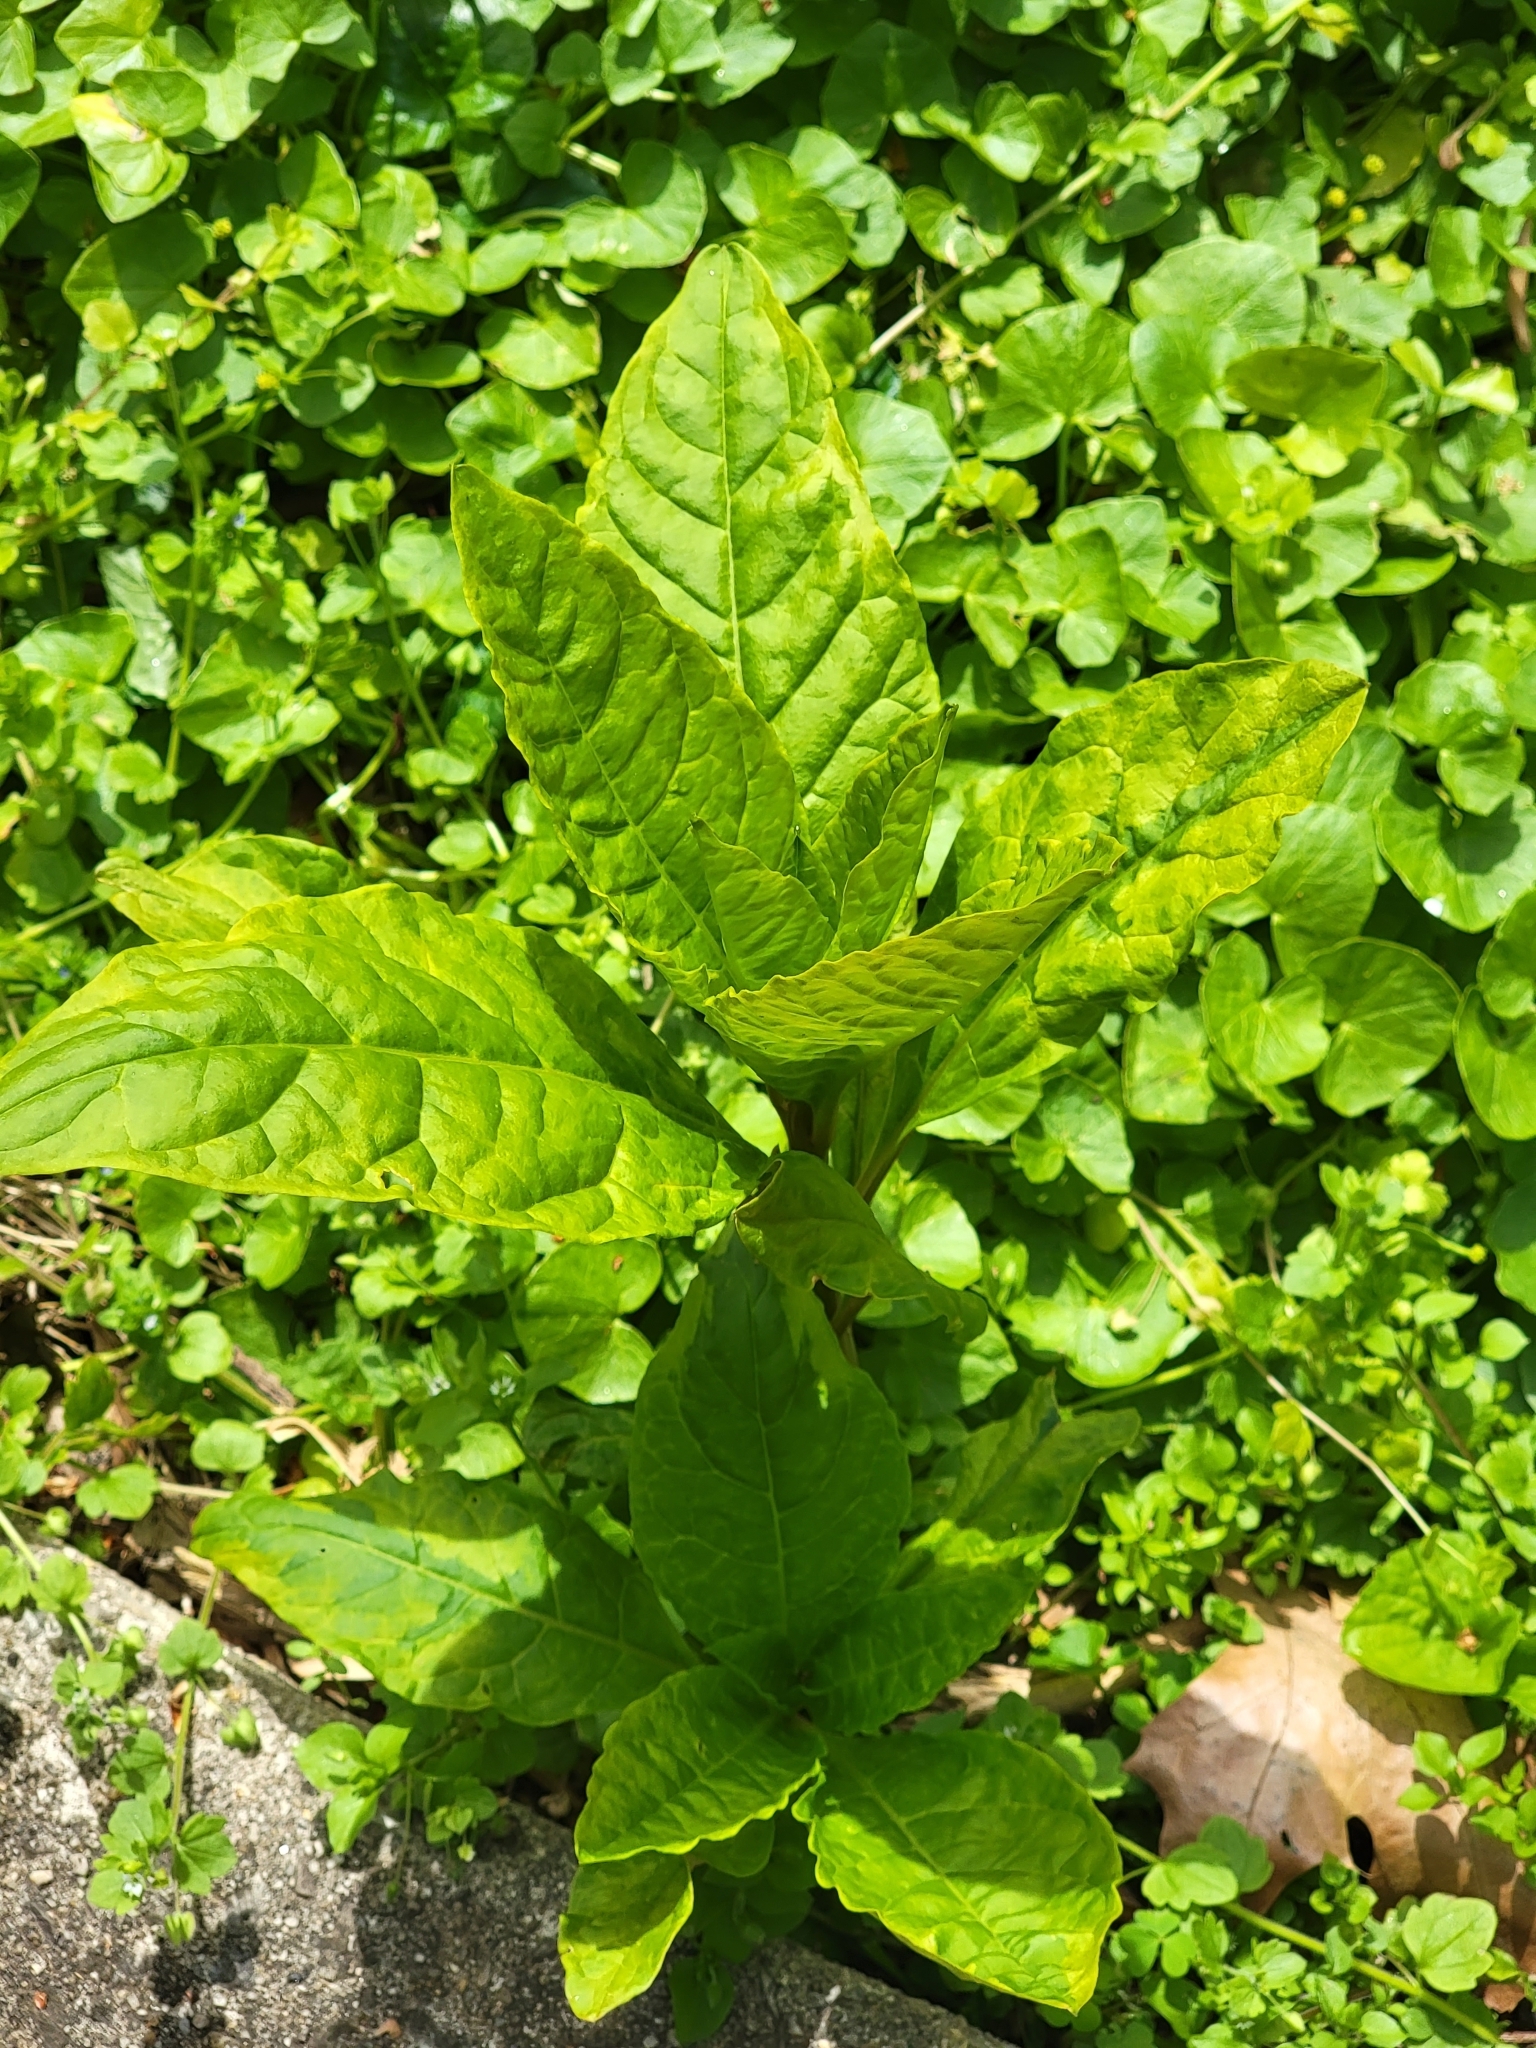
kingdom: Plantae
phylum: Tracheophyta
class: Magnoliopsida
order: Caryophyllales
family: Phytolaccaceae
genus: Phytolacca
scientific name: Phytolacca americana
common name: American pokeweed
